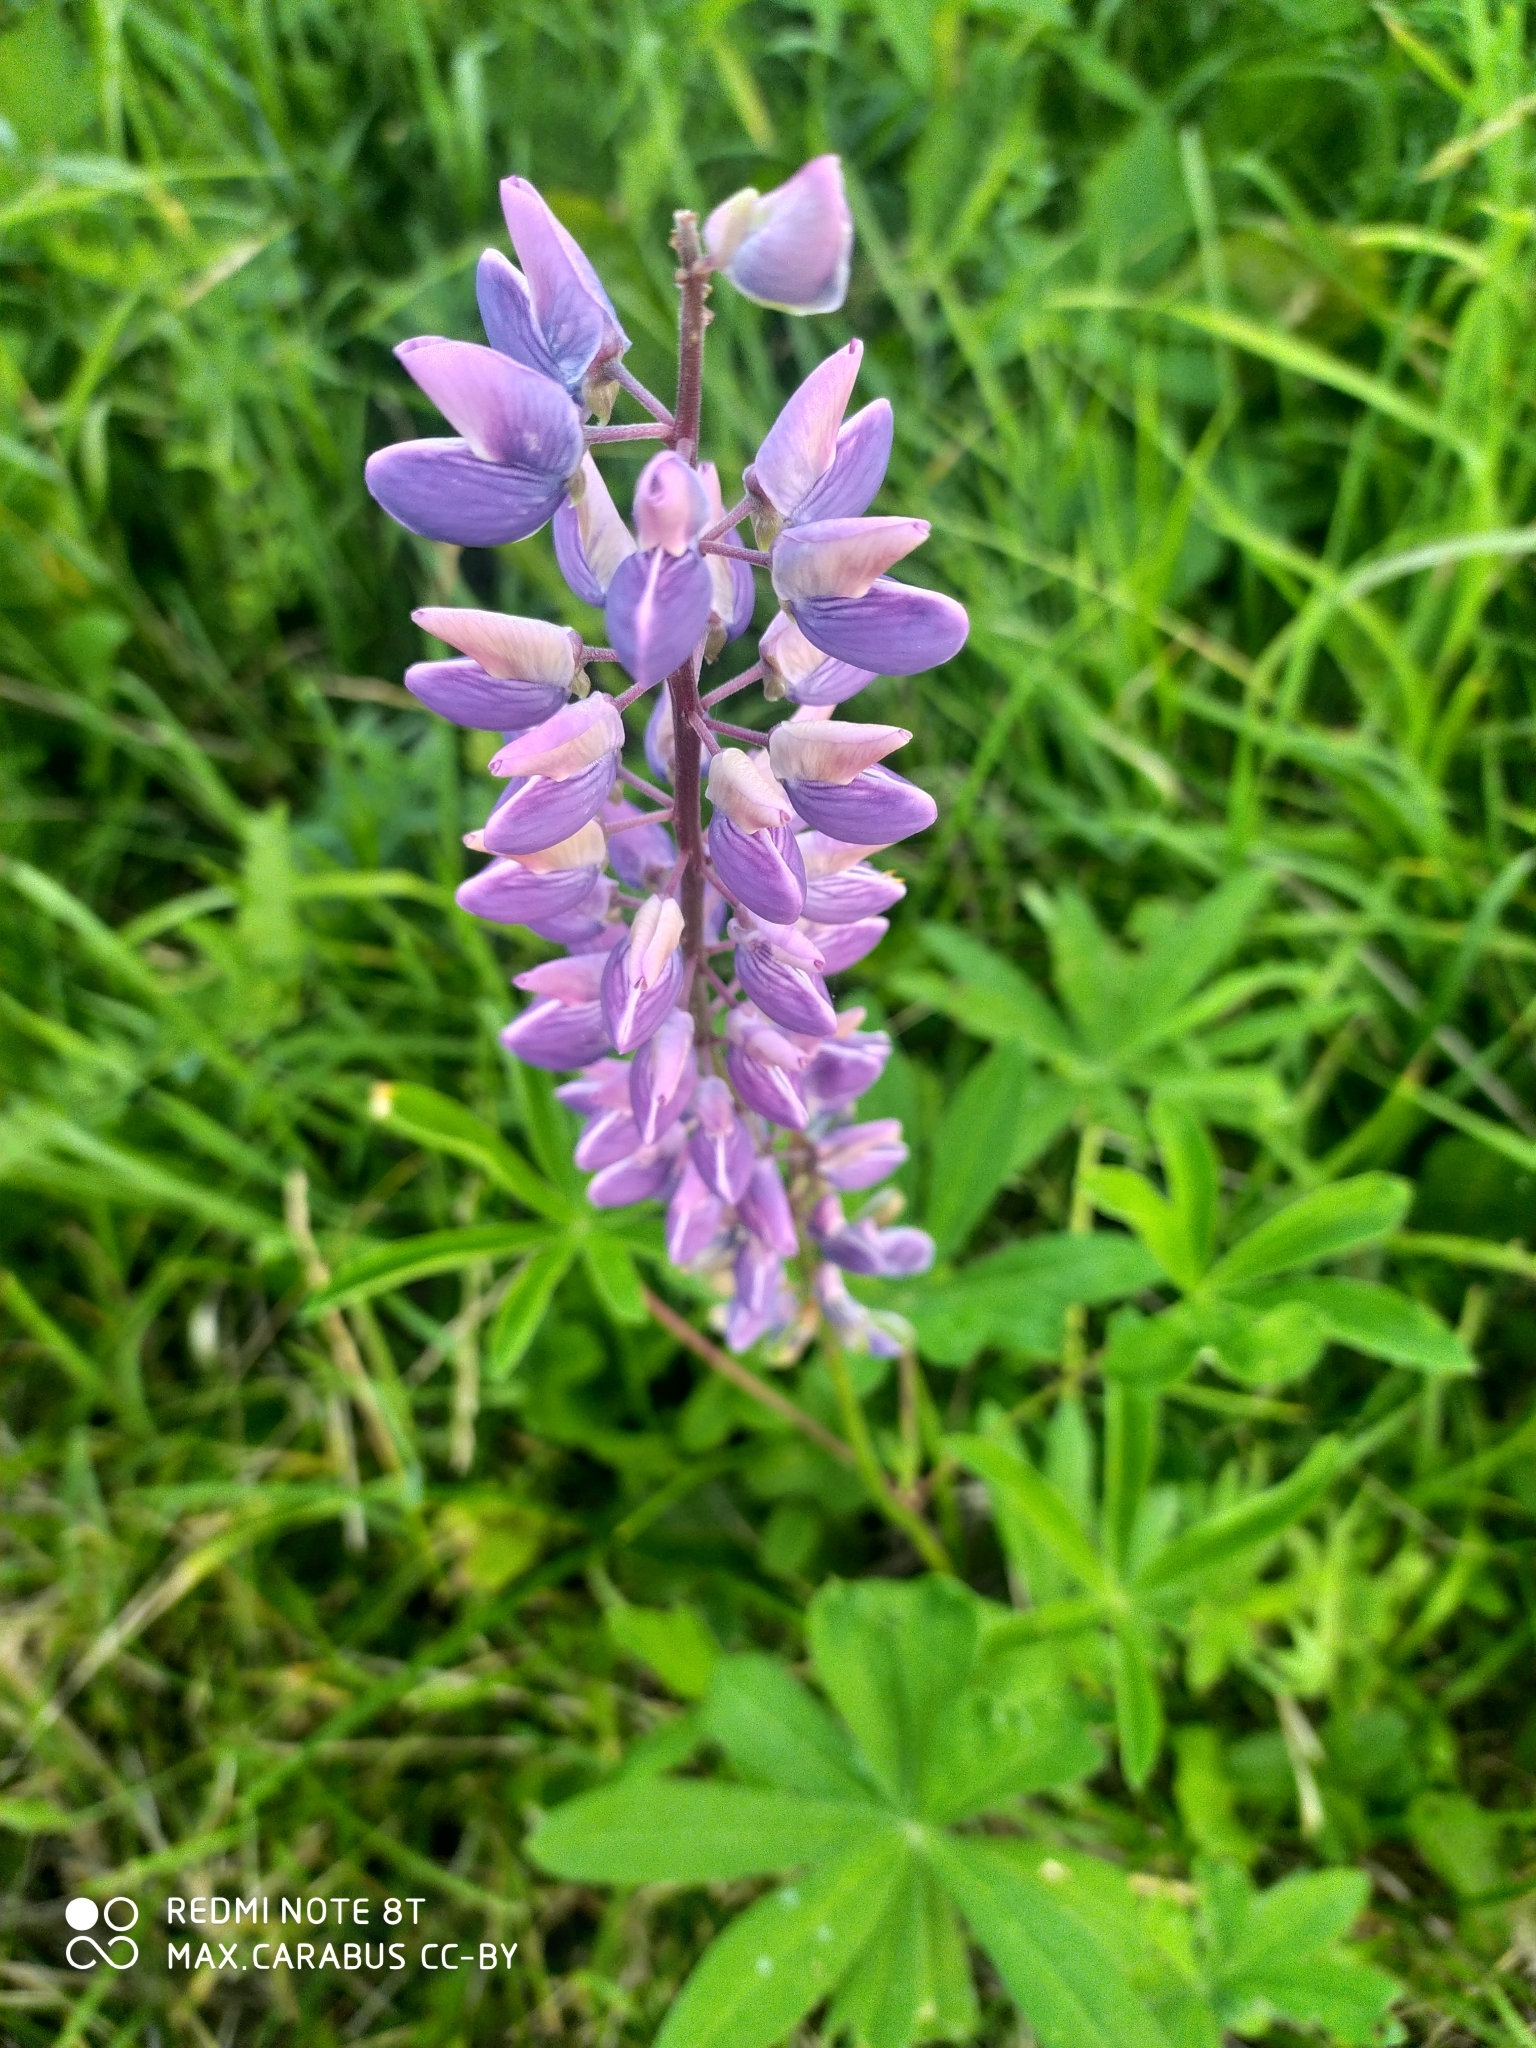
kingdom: Plantae
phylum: Tracheophyta
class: Magnoliopsida
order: Fabales
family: Fabaceae
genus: Lupinus
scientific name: Lupinus polyphyllus
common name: Garden lupin
